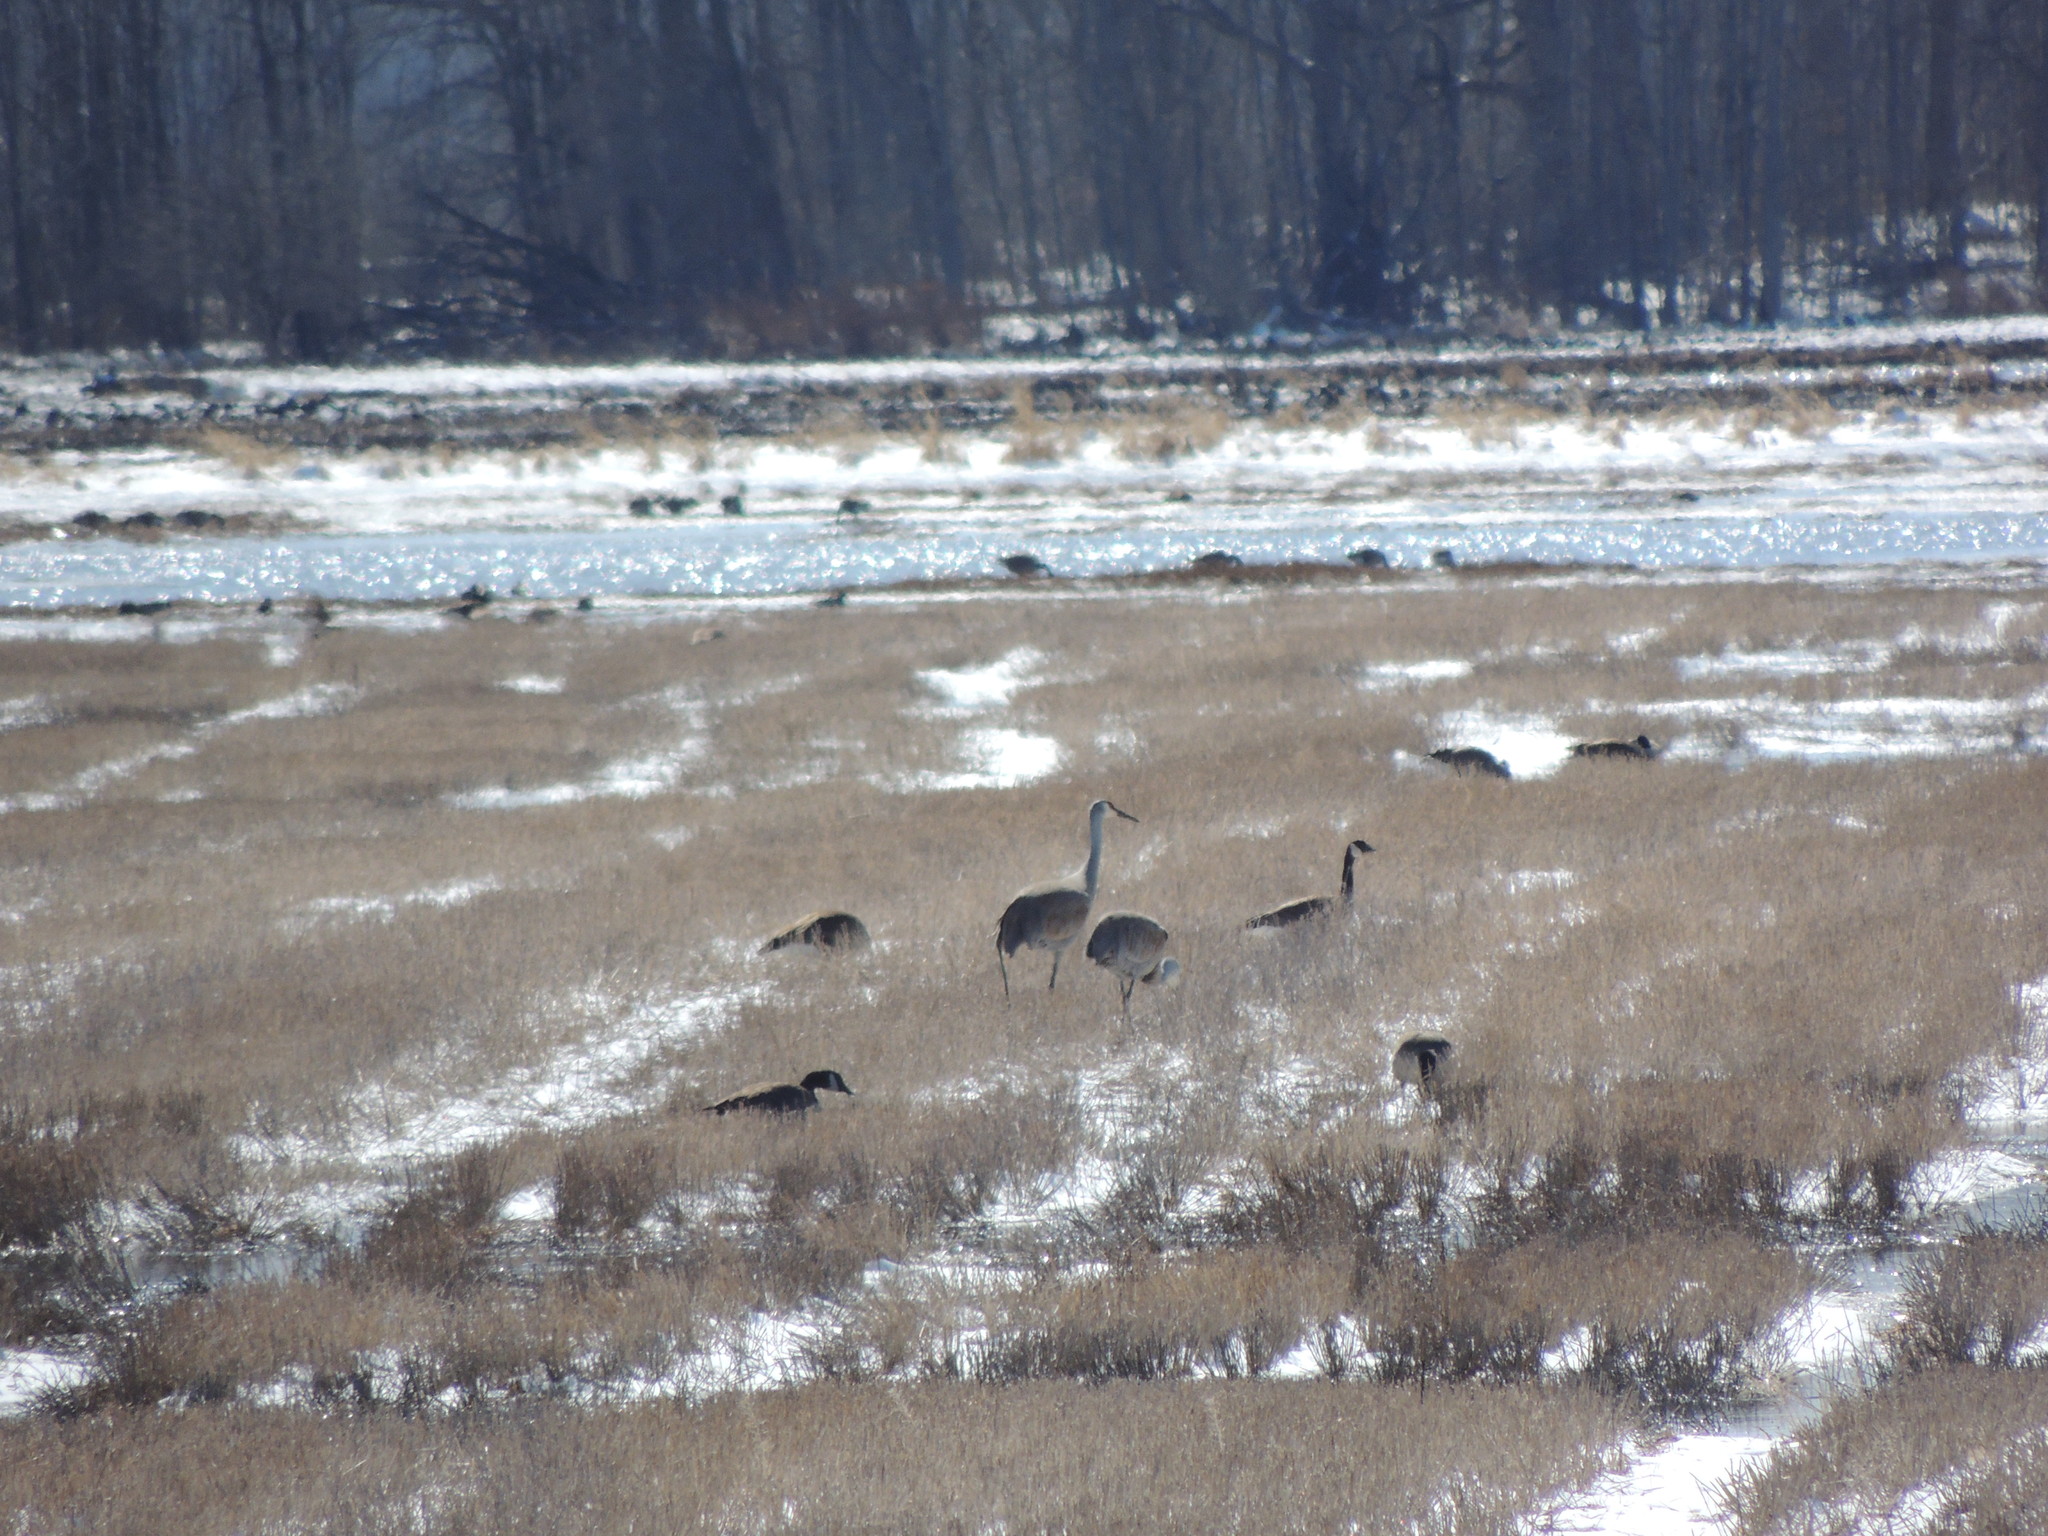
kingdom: Animalia
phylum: Chordata
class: Aves
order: Gruiformes
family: Gruidae
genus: Grus
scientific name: Grus canadensis
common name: Sandhill crane
